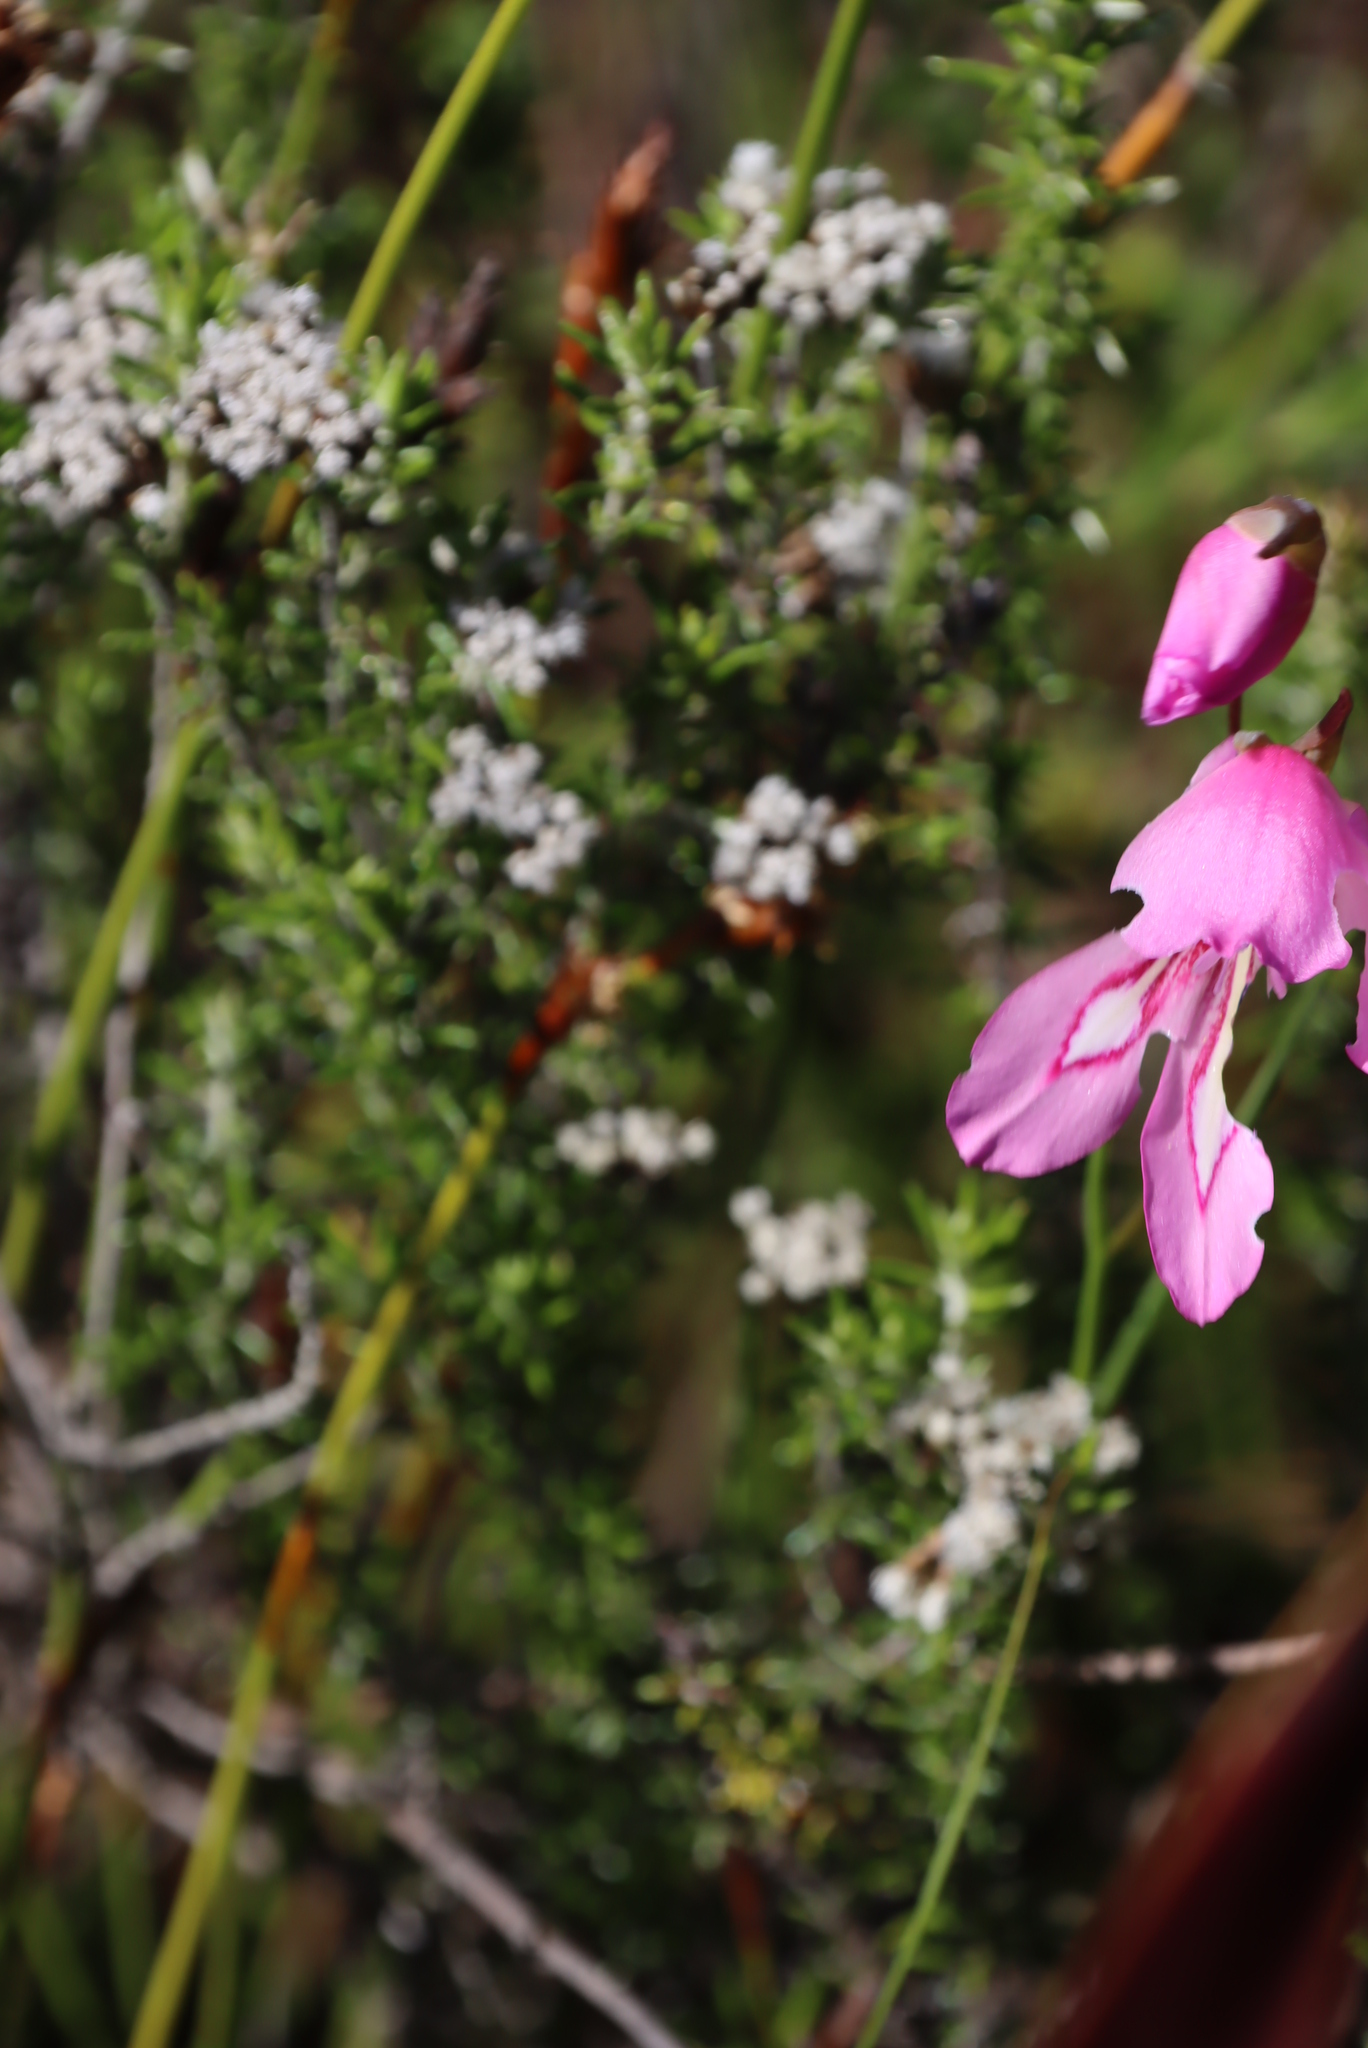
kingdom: Plantae
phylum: Tracheophyta
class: Liliopsida
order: Asparagales
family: Iridaceae
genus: Gladiolus
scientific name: Gladiolus ornatus
